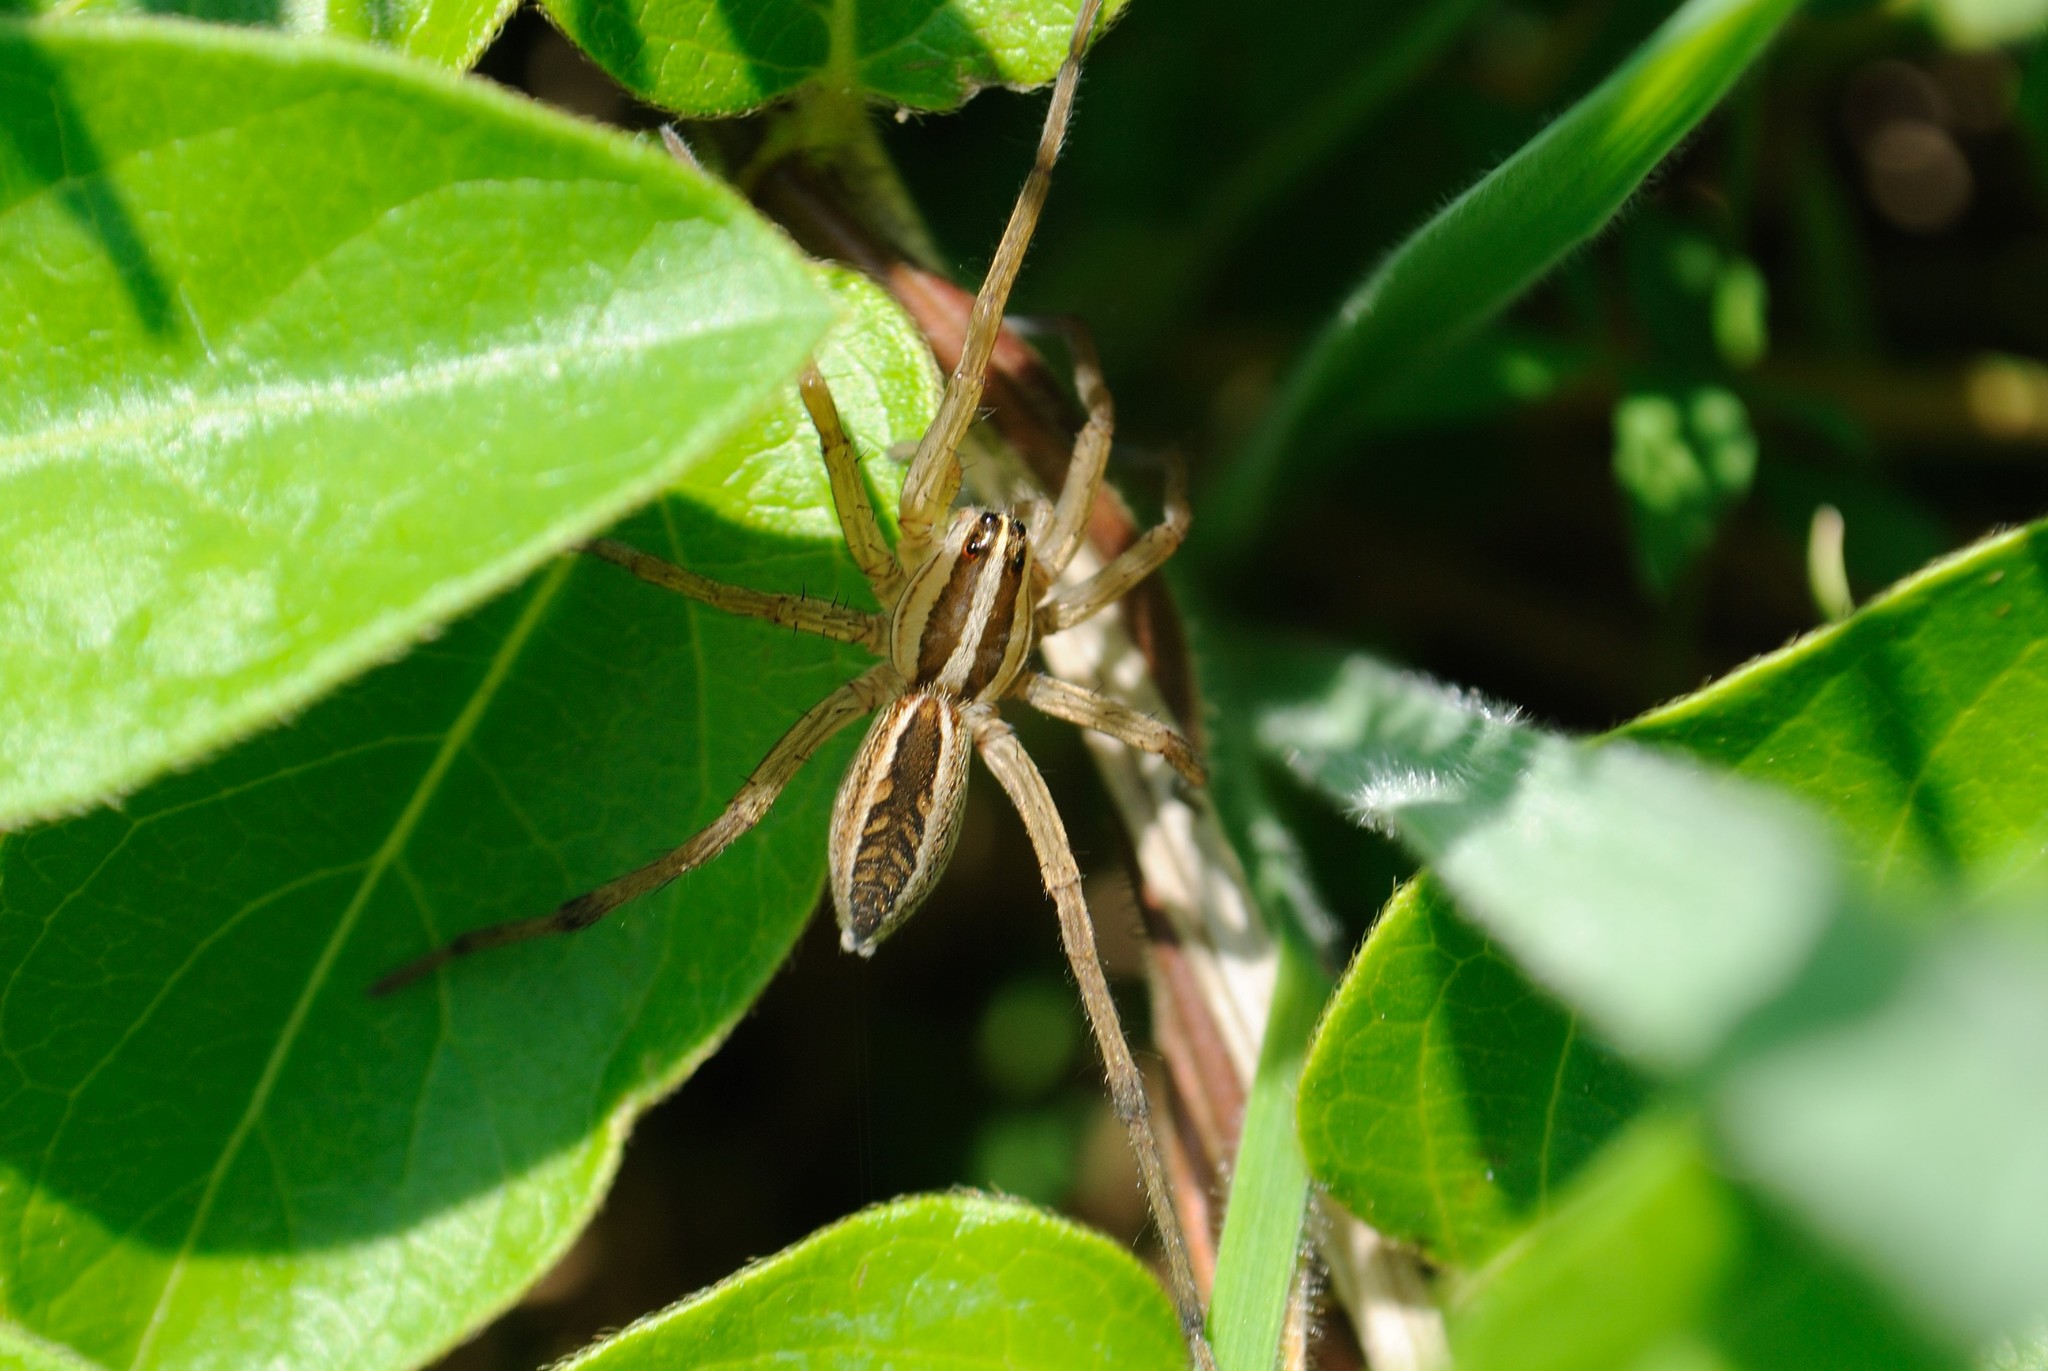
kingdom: Animalia
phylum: Arthropoda
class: Arachnida
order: Araneae
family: Lycosidae
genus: Rabidosa
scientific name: Rabidosa rabida
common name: Rabid wolf spider
